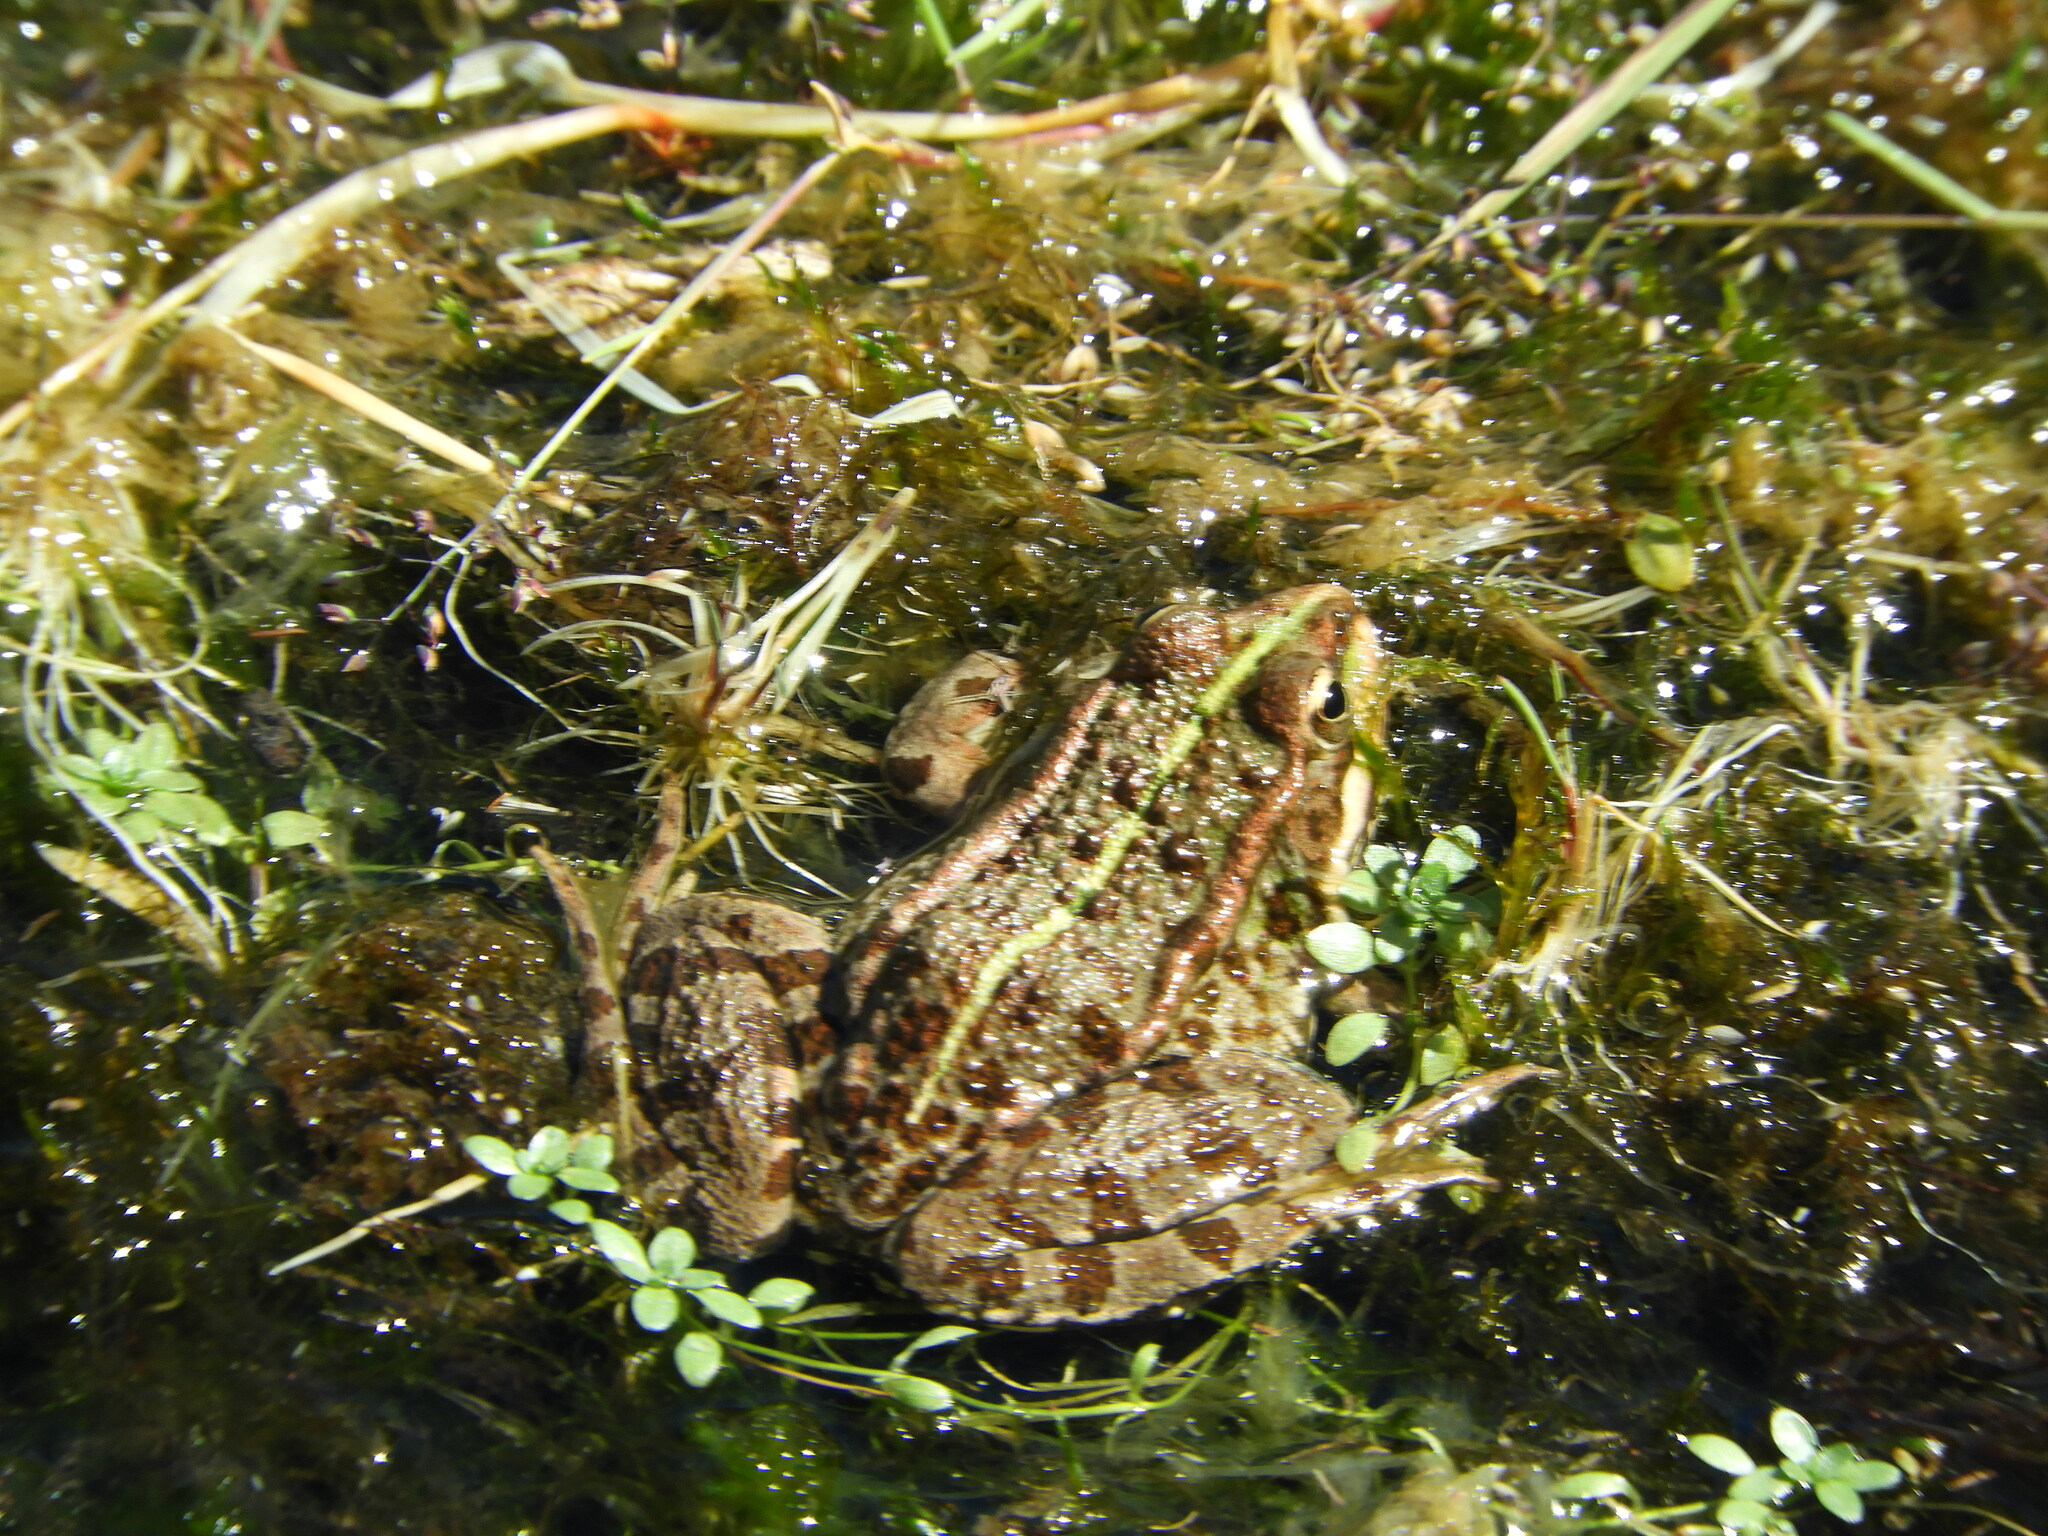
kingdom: Animalia
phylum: Chordata
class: Amphibia
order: Anura
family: Ranidae
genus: Pelophylax
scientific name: Pelophylax perezi
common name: Perez's frog
